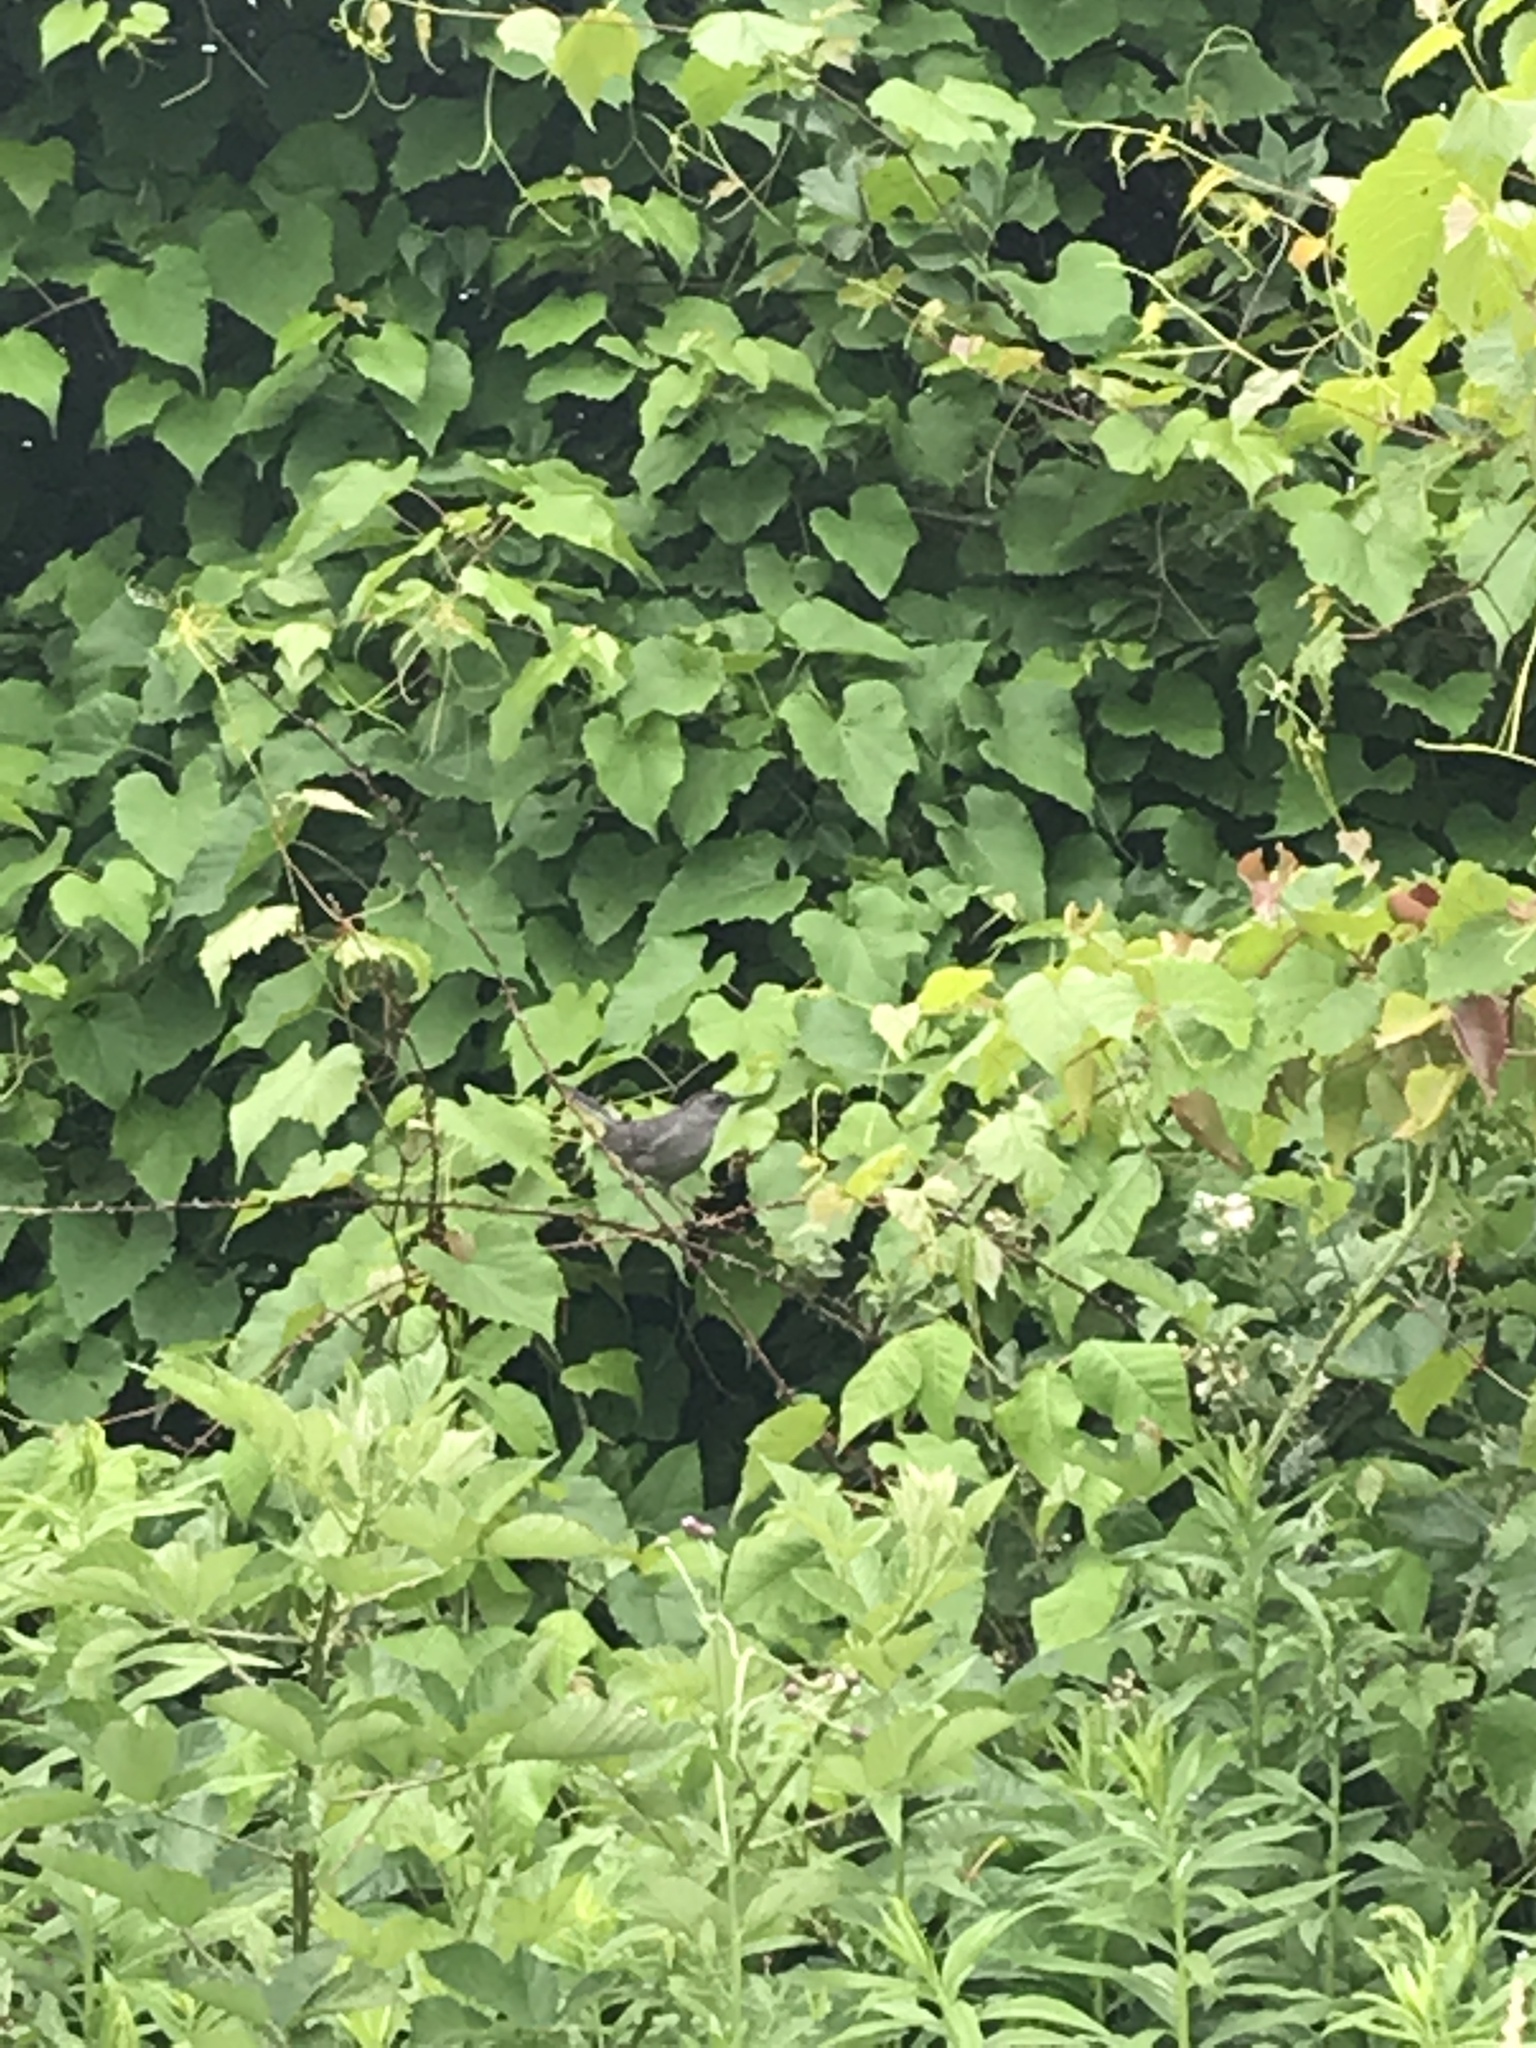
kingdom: Animalia
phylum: Chordata
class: Aves
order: Passeriformes
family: Mimidae
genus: Dumetella
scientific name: Dumetella carolinensis
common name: Gray catbird
